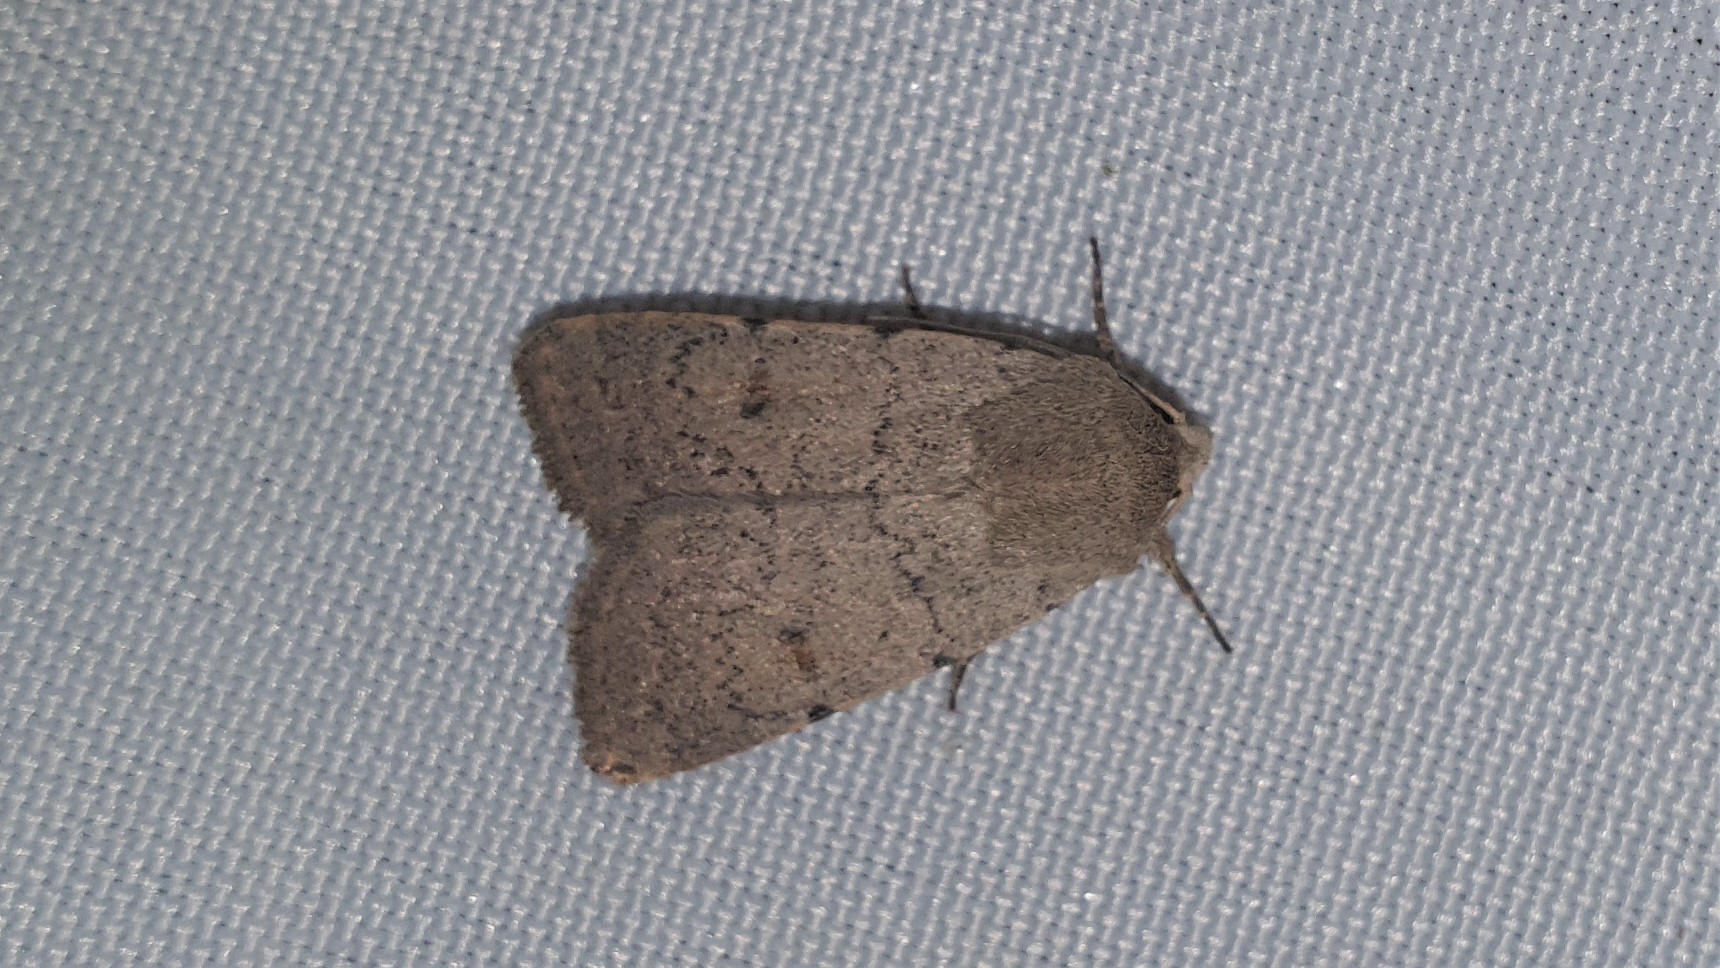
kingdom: Animalia
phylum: Arthropoda
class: Insecta
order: Lepidoptera
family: Noctuidae
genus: Caradrina
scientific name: Caradrina aspersa
